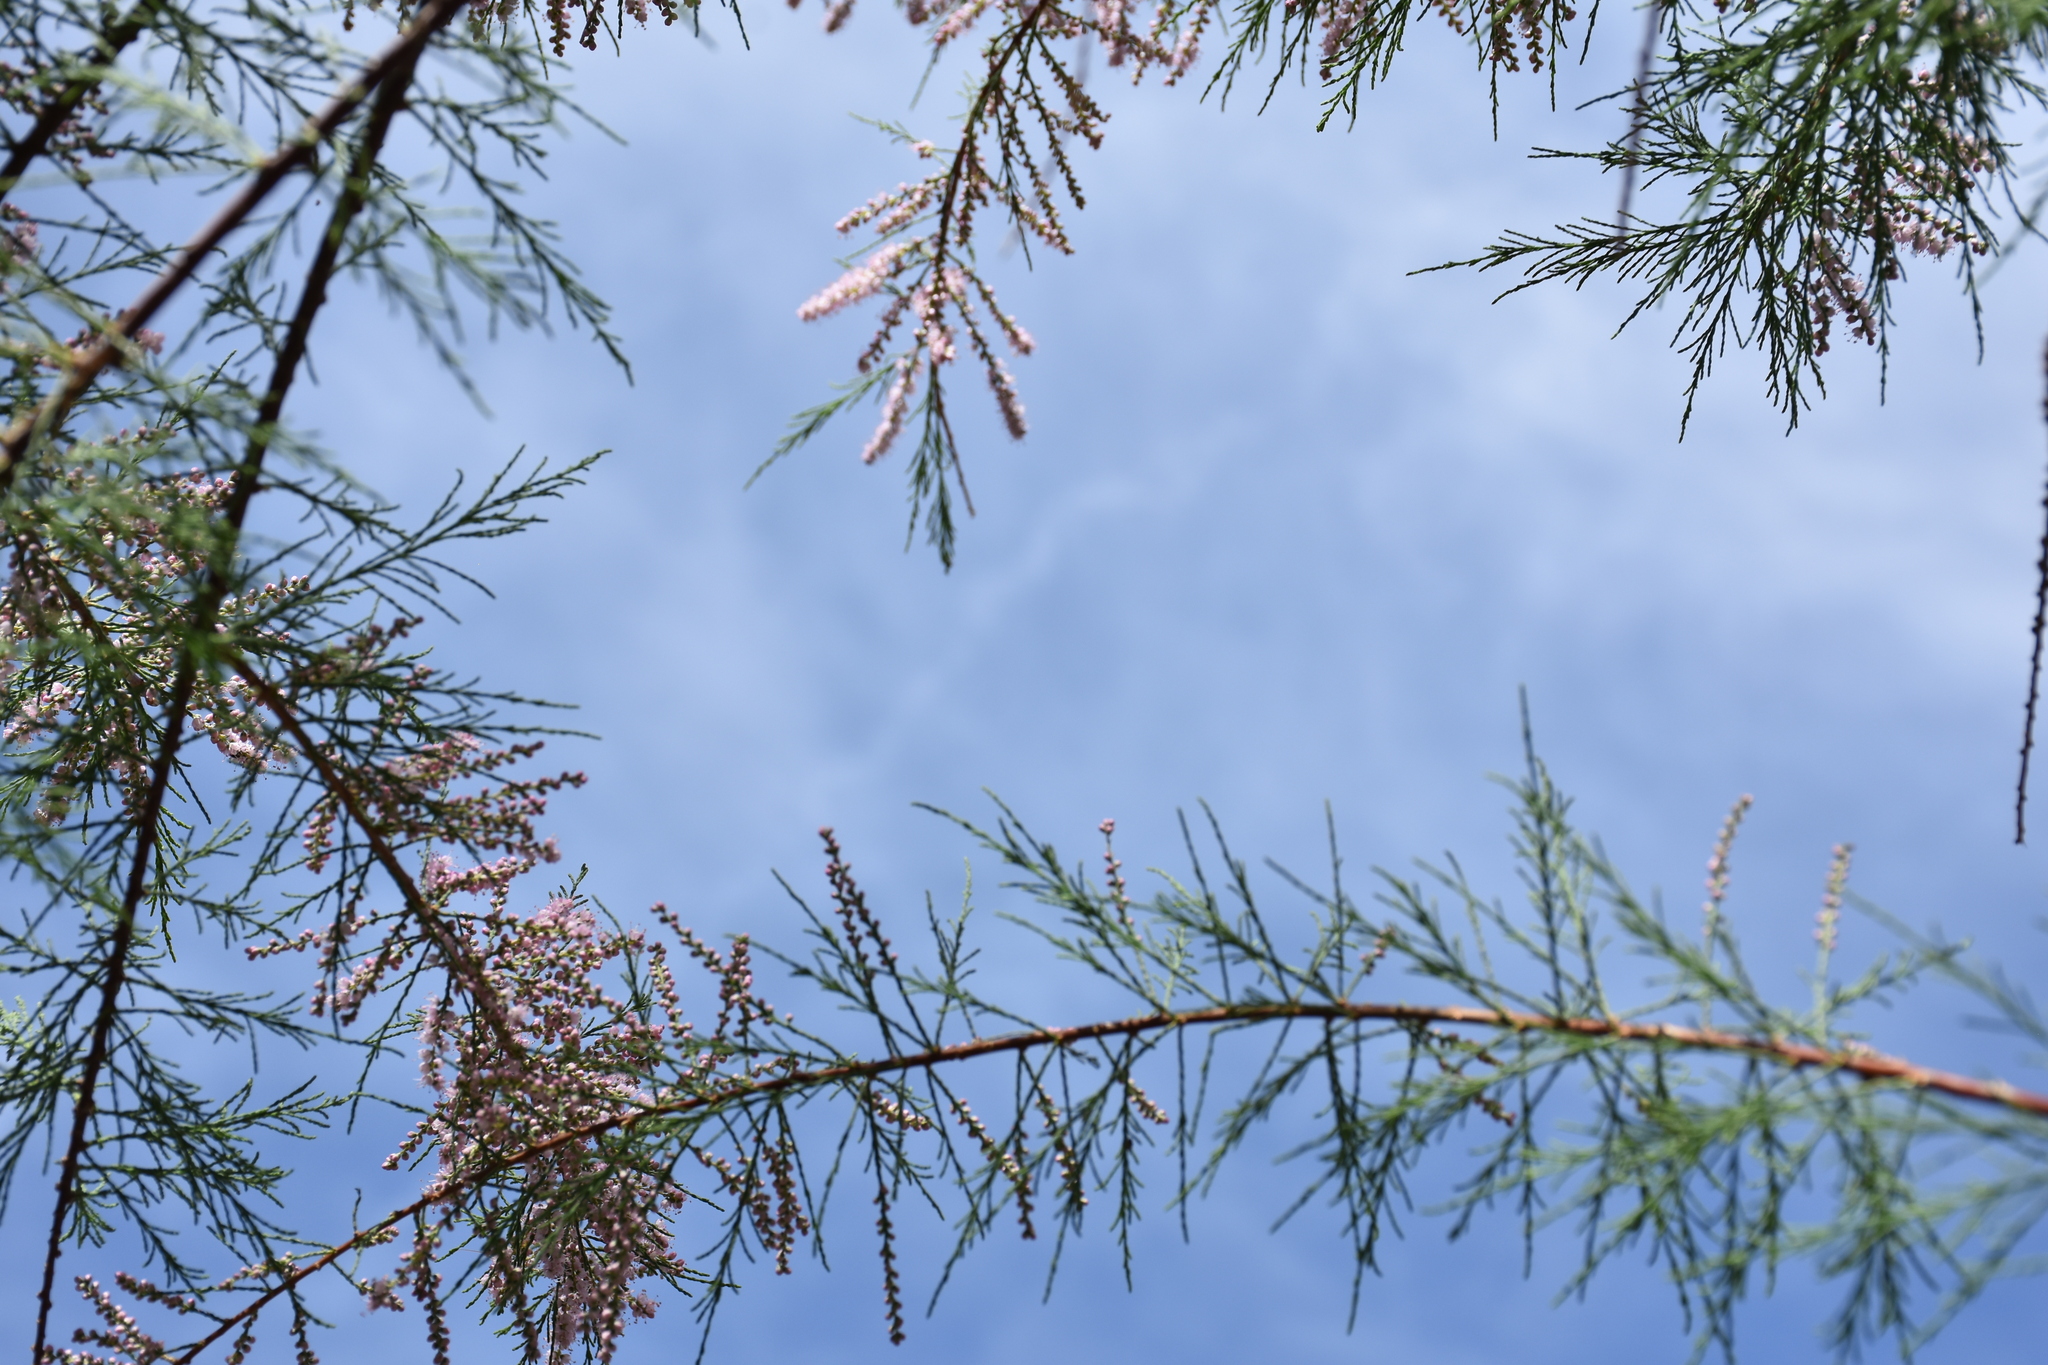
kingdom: Plantae
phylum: Tracheophyta
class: Magnoliopsida
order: Caryophyllales
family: Tamaricaceae
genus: Tamarix
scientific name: Tamarix
